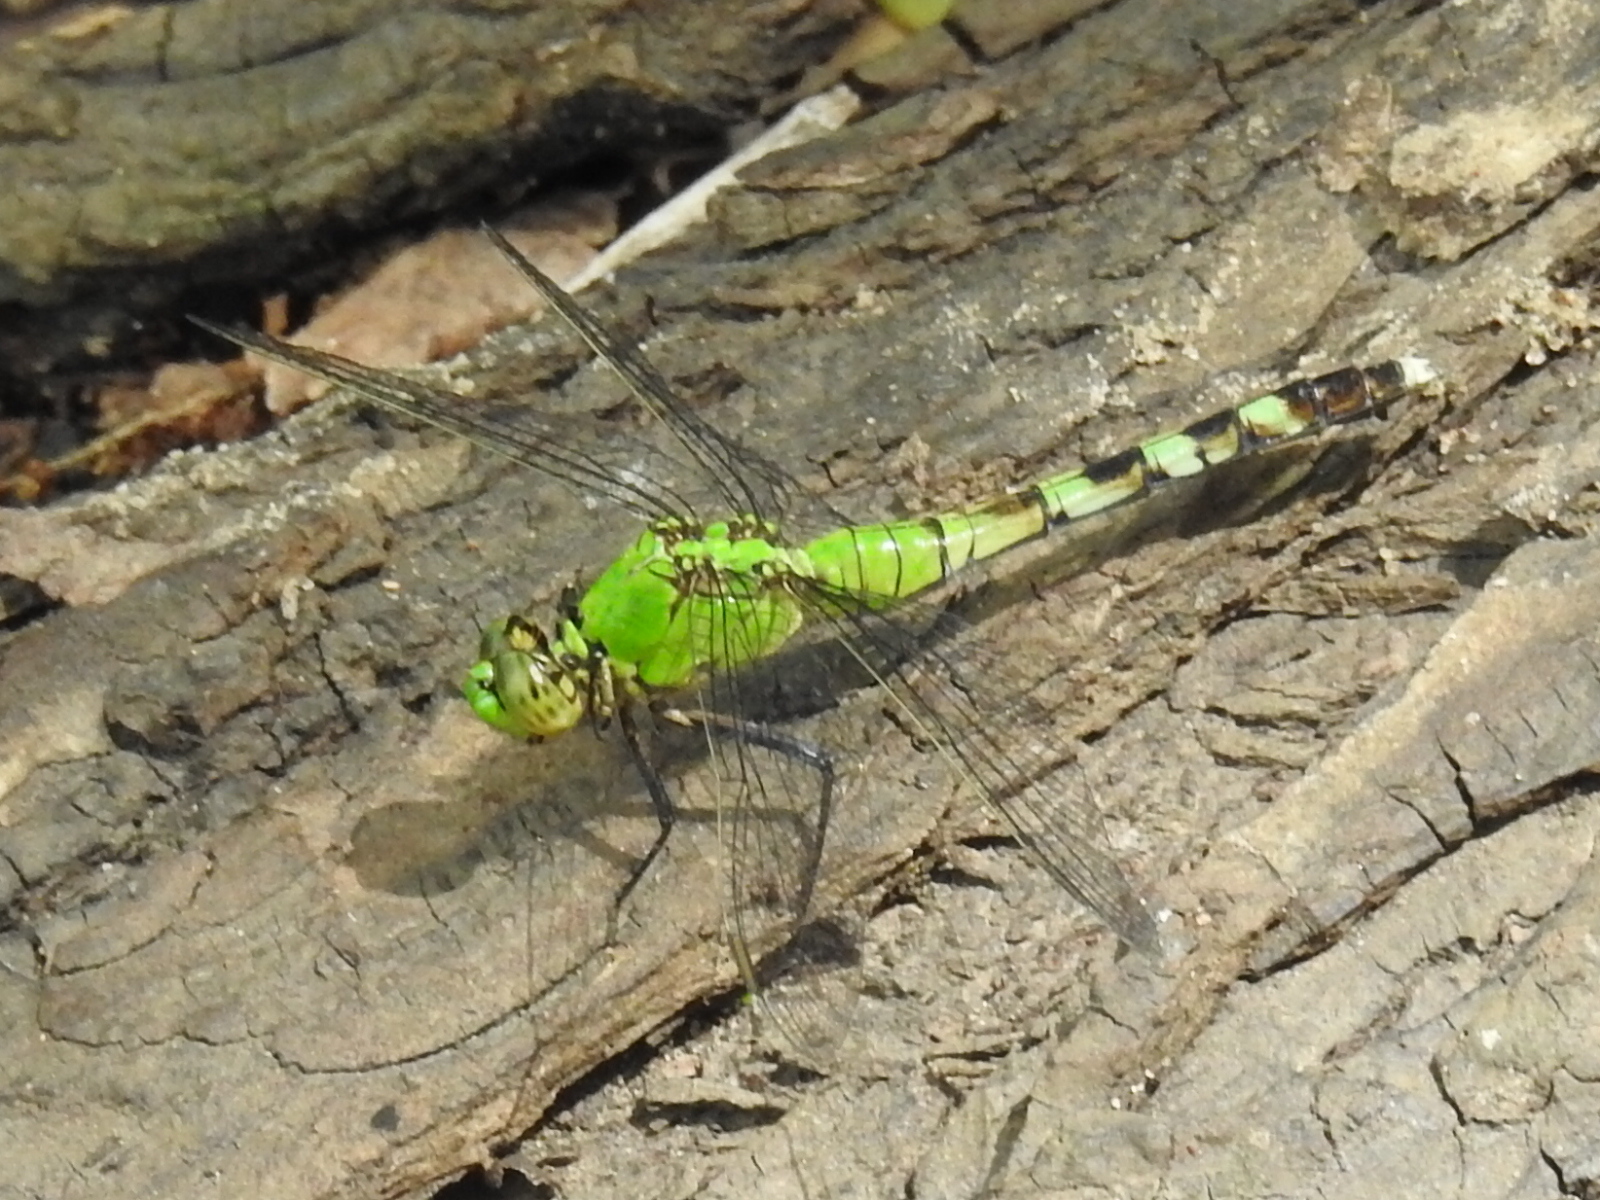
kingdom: Animalia
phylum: Arthropoda
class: Insecta
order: Odonata
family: Libellulidae
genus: Erythemis
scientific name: Erythemis simplicicollis
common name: Eastern pondhawk
